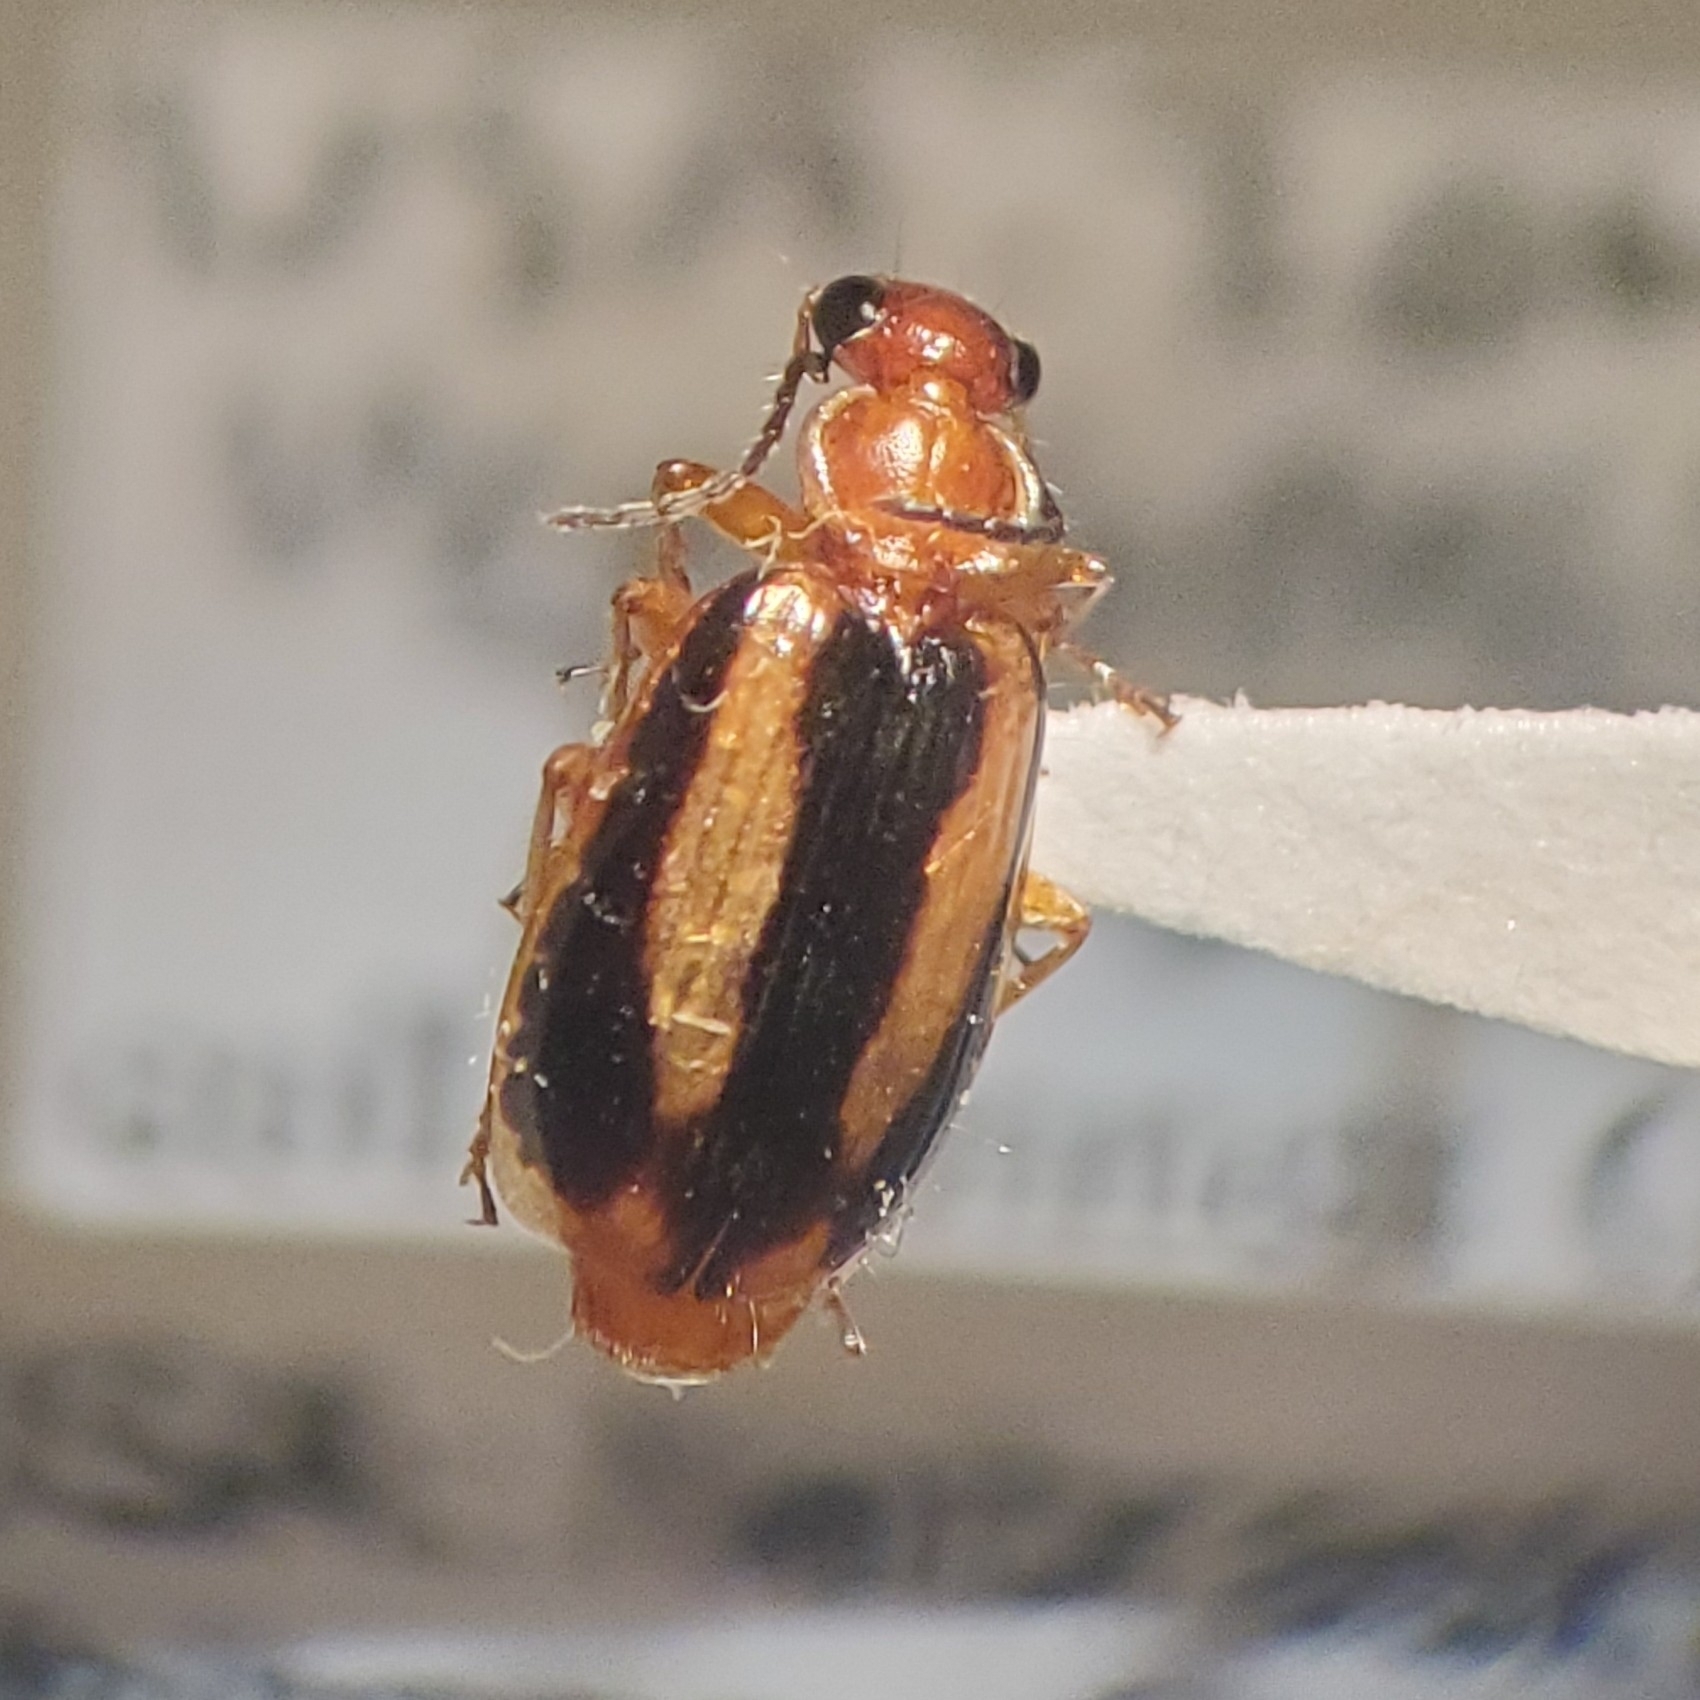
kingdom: Animalia
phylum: Arthropoda
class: Insecta
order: Coleoptera
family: Carabidae
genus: Lebia
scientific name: Lebia solea
